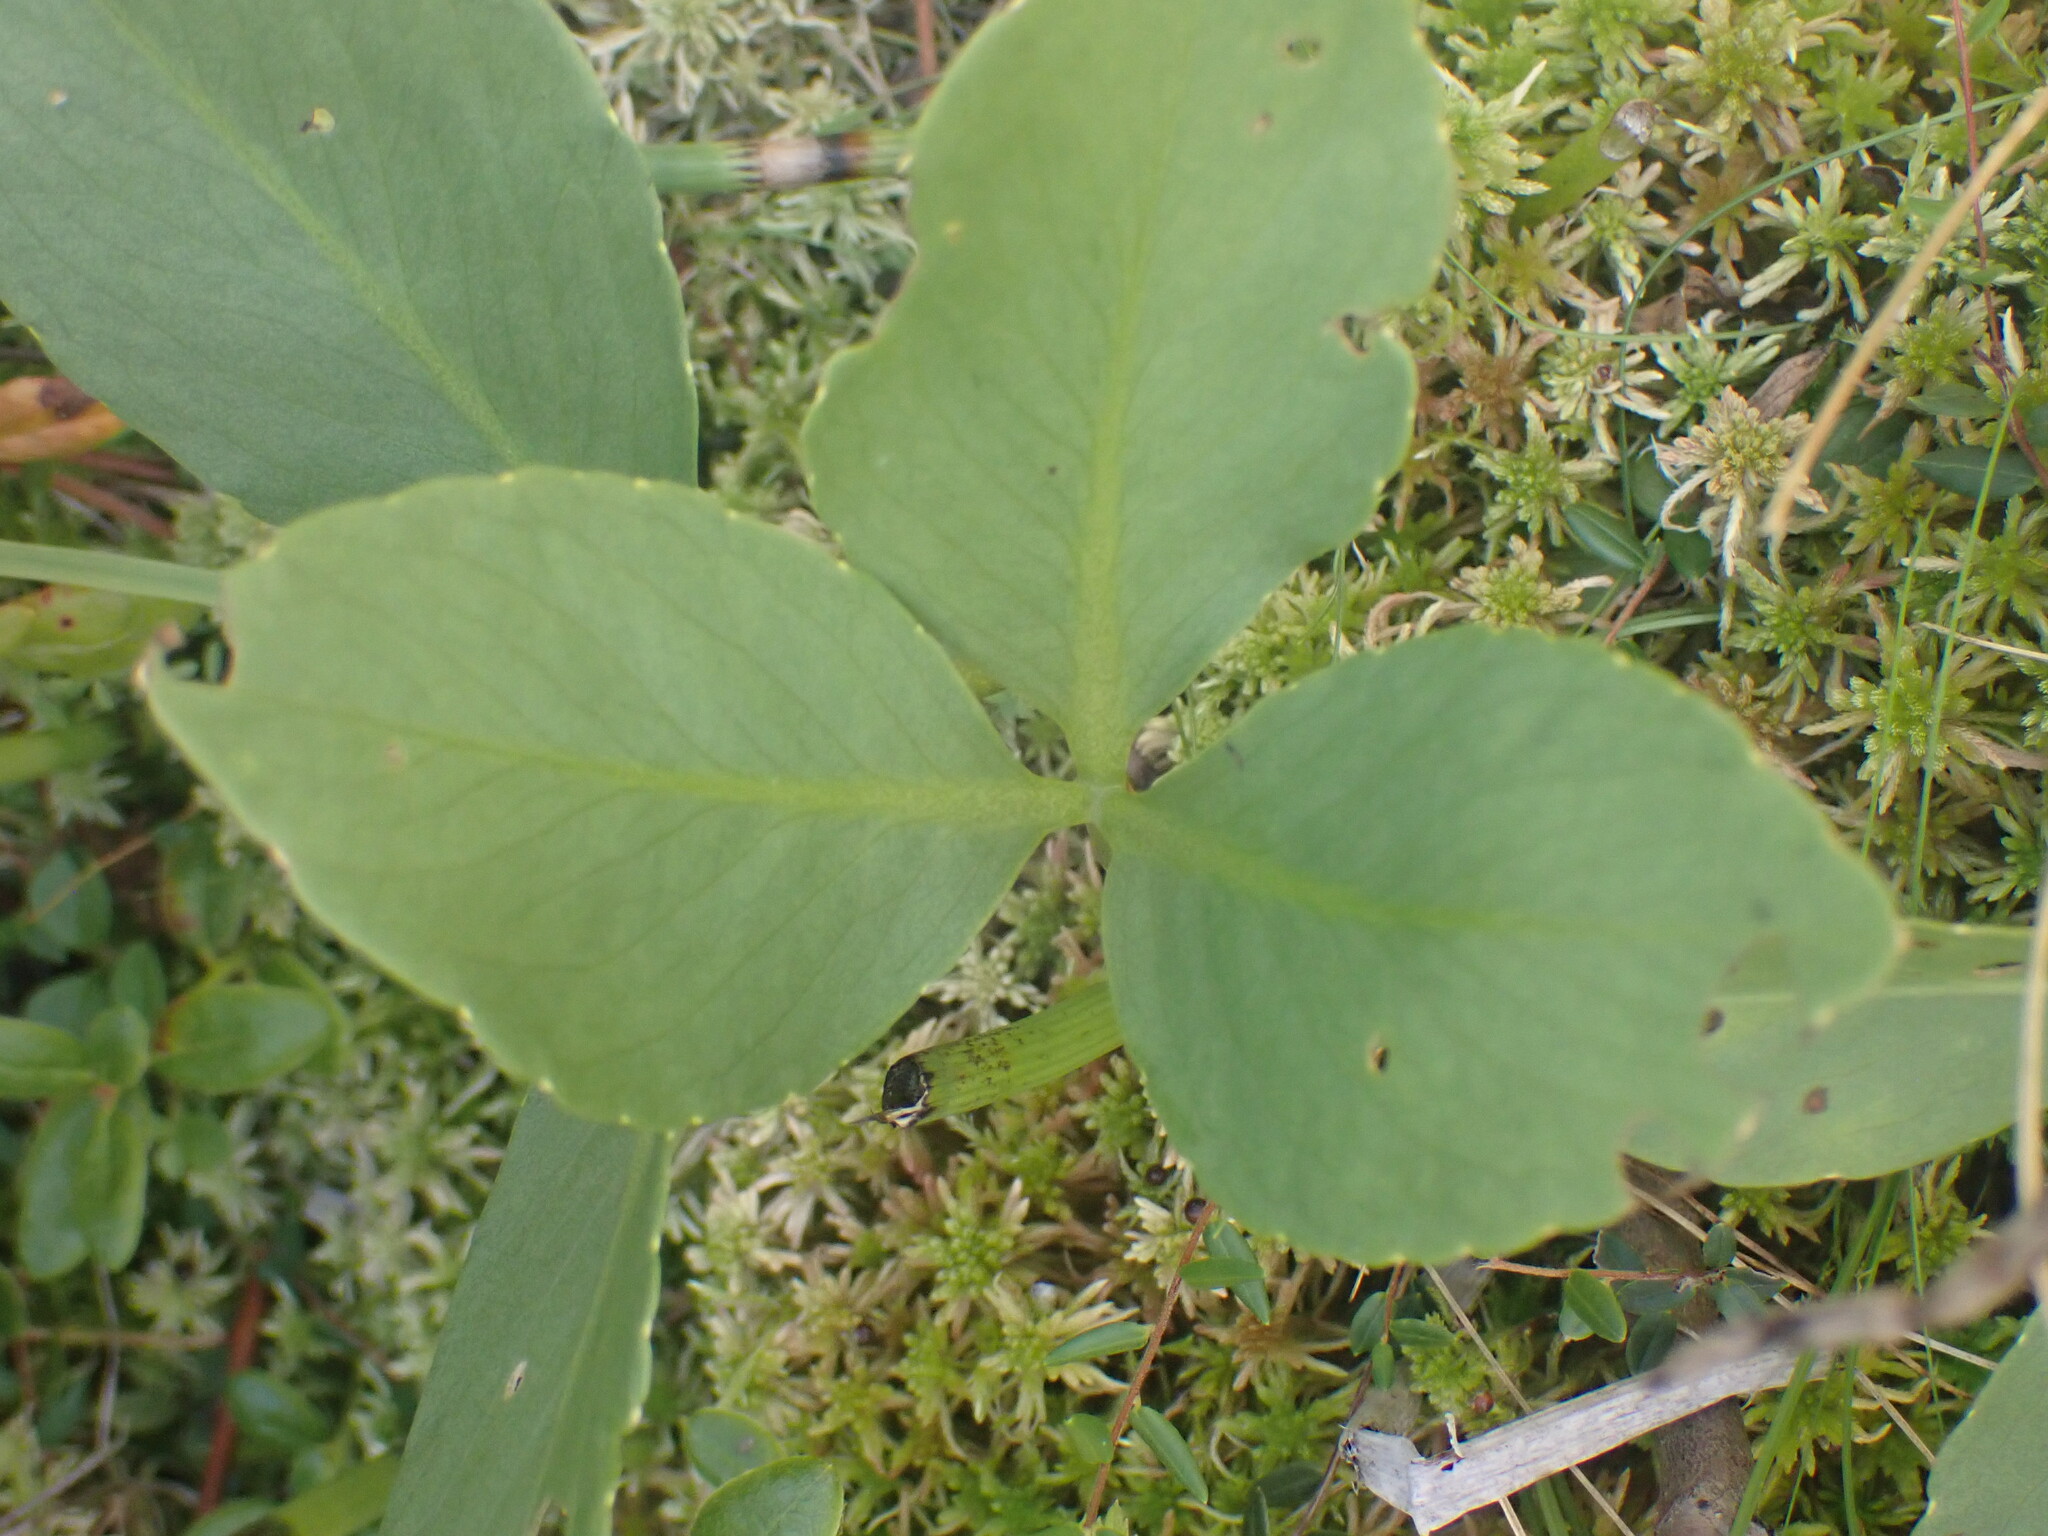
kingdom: Plantae
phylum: Tracheophyta
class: Magnoliopsida
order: Asterales
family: Menyanthaceae
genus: Menyanthes
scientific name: Menyanthes trifoliata
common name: Bogbean
